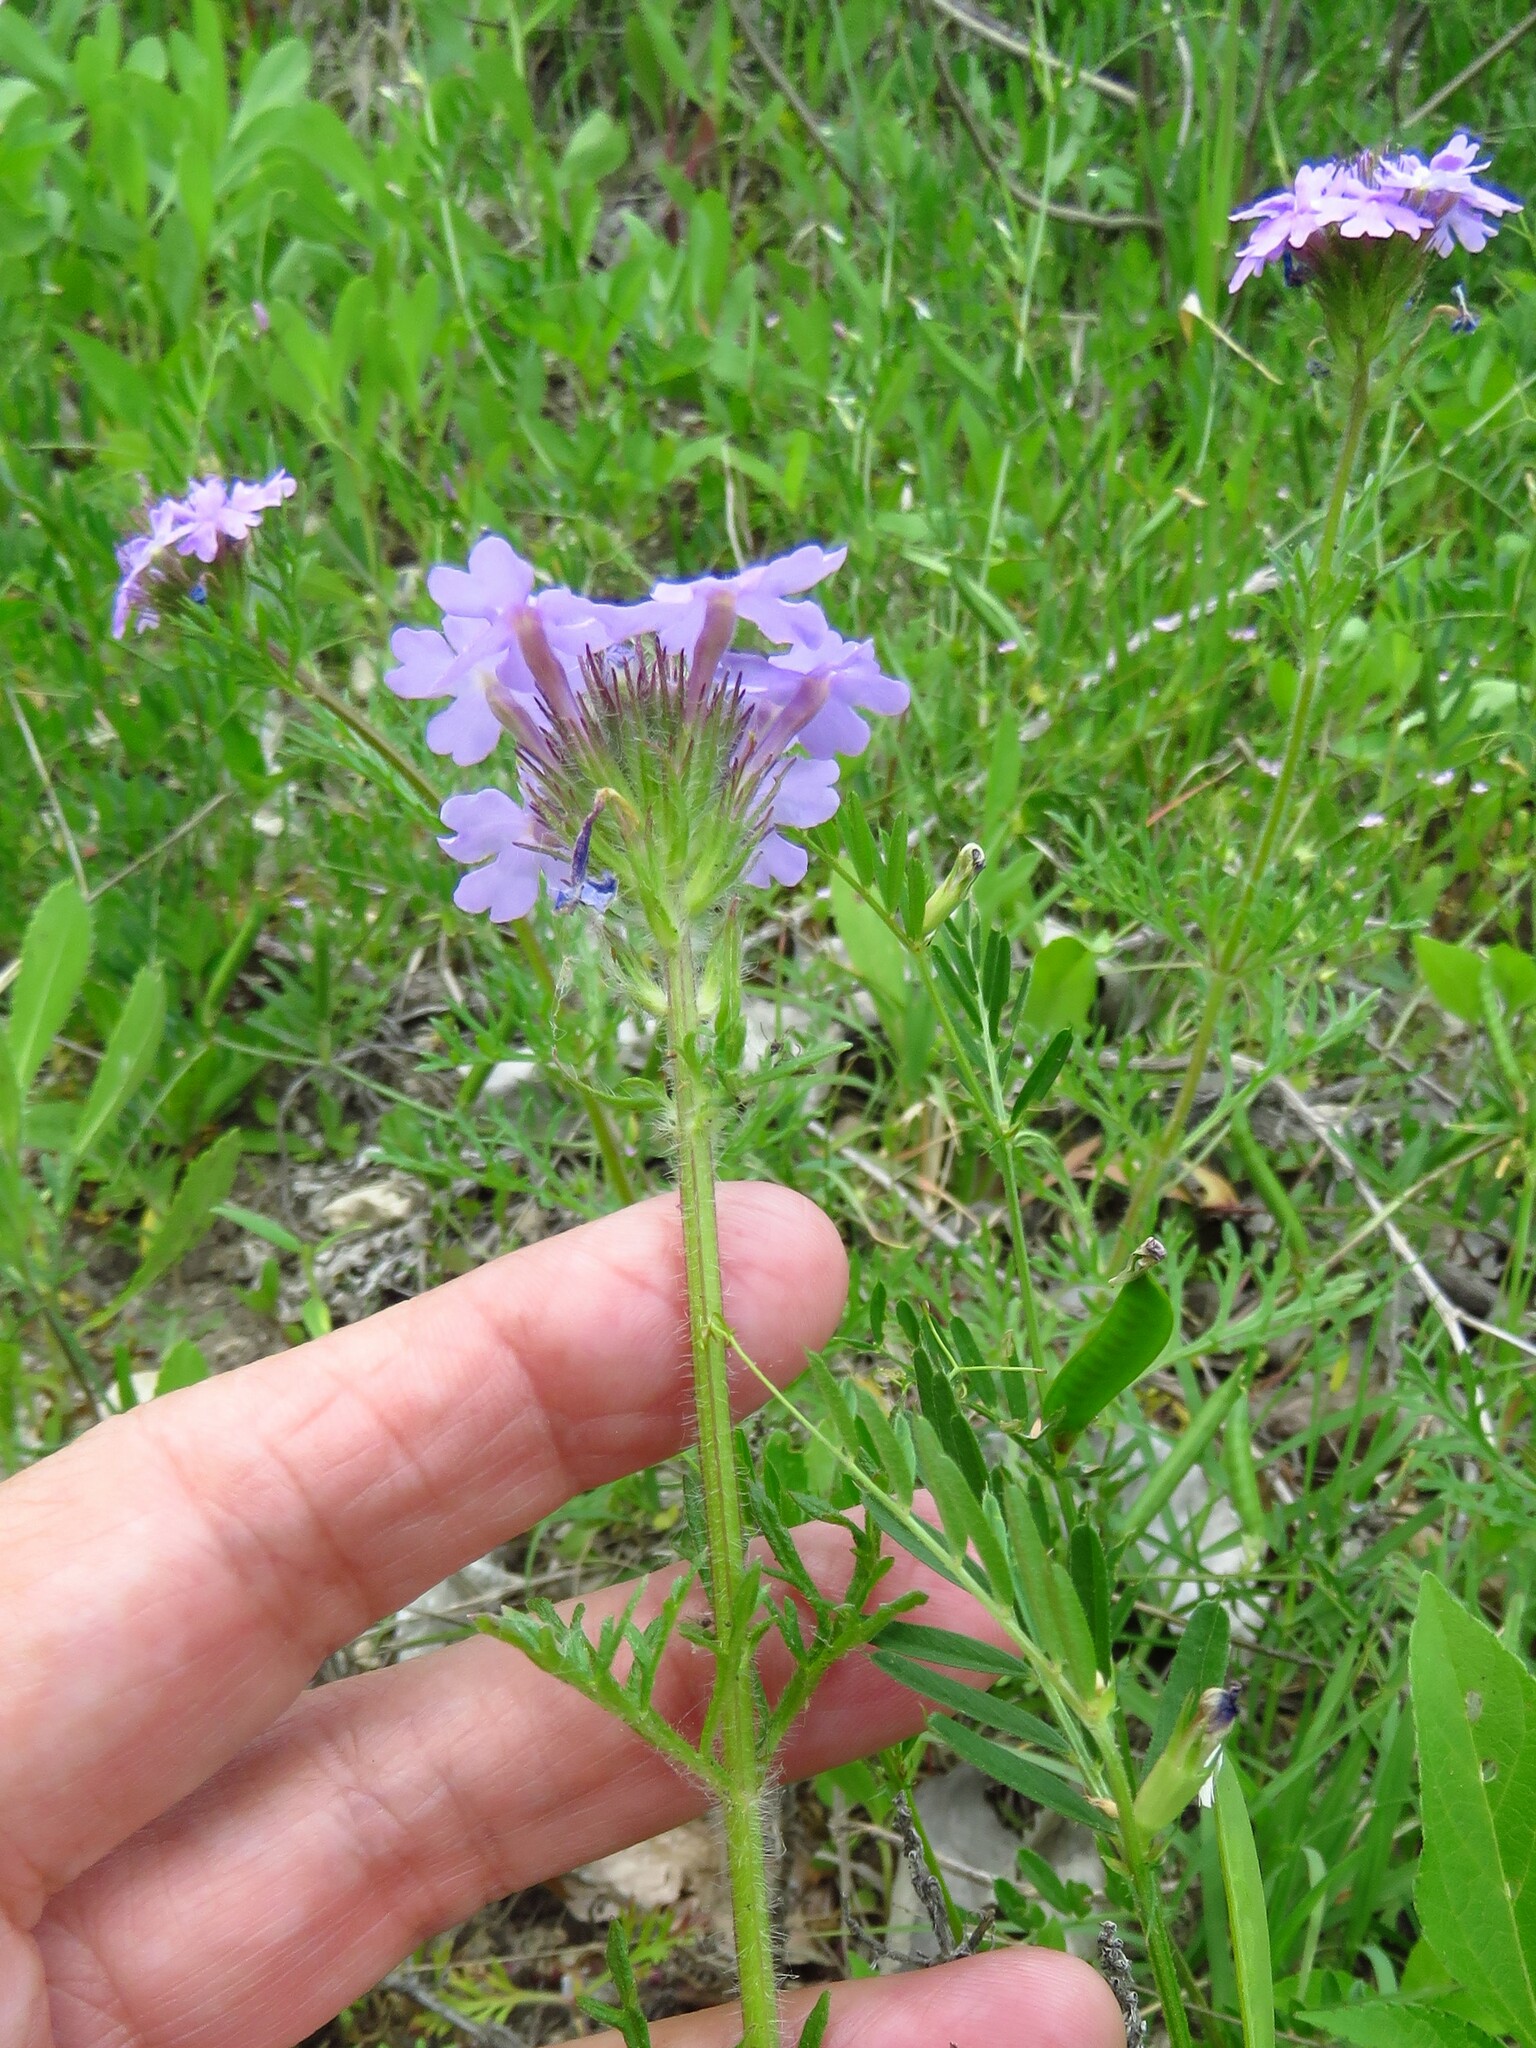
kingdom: Plantae
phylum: Tracheophyta
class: Magnoliopsida
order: Lamiales
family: Verbenaceae
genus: Verbena
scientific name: Verbena bipinnatifida
